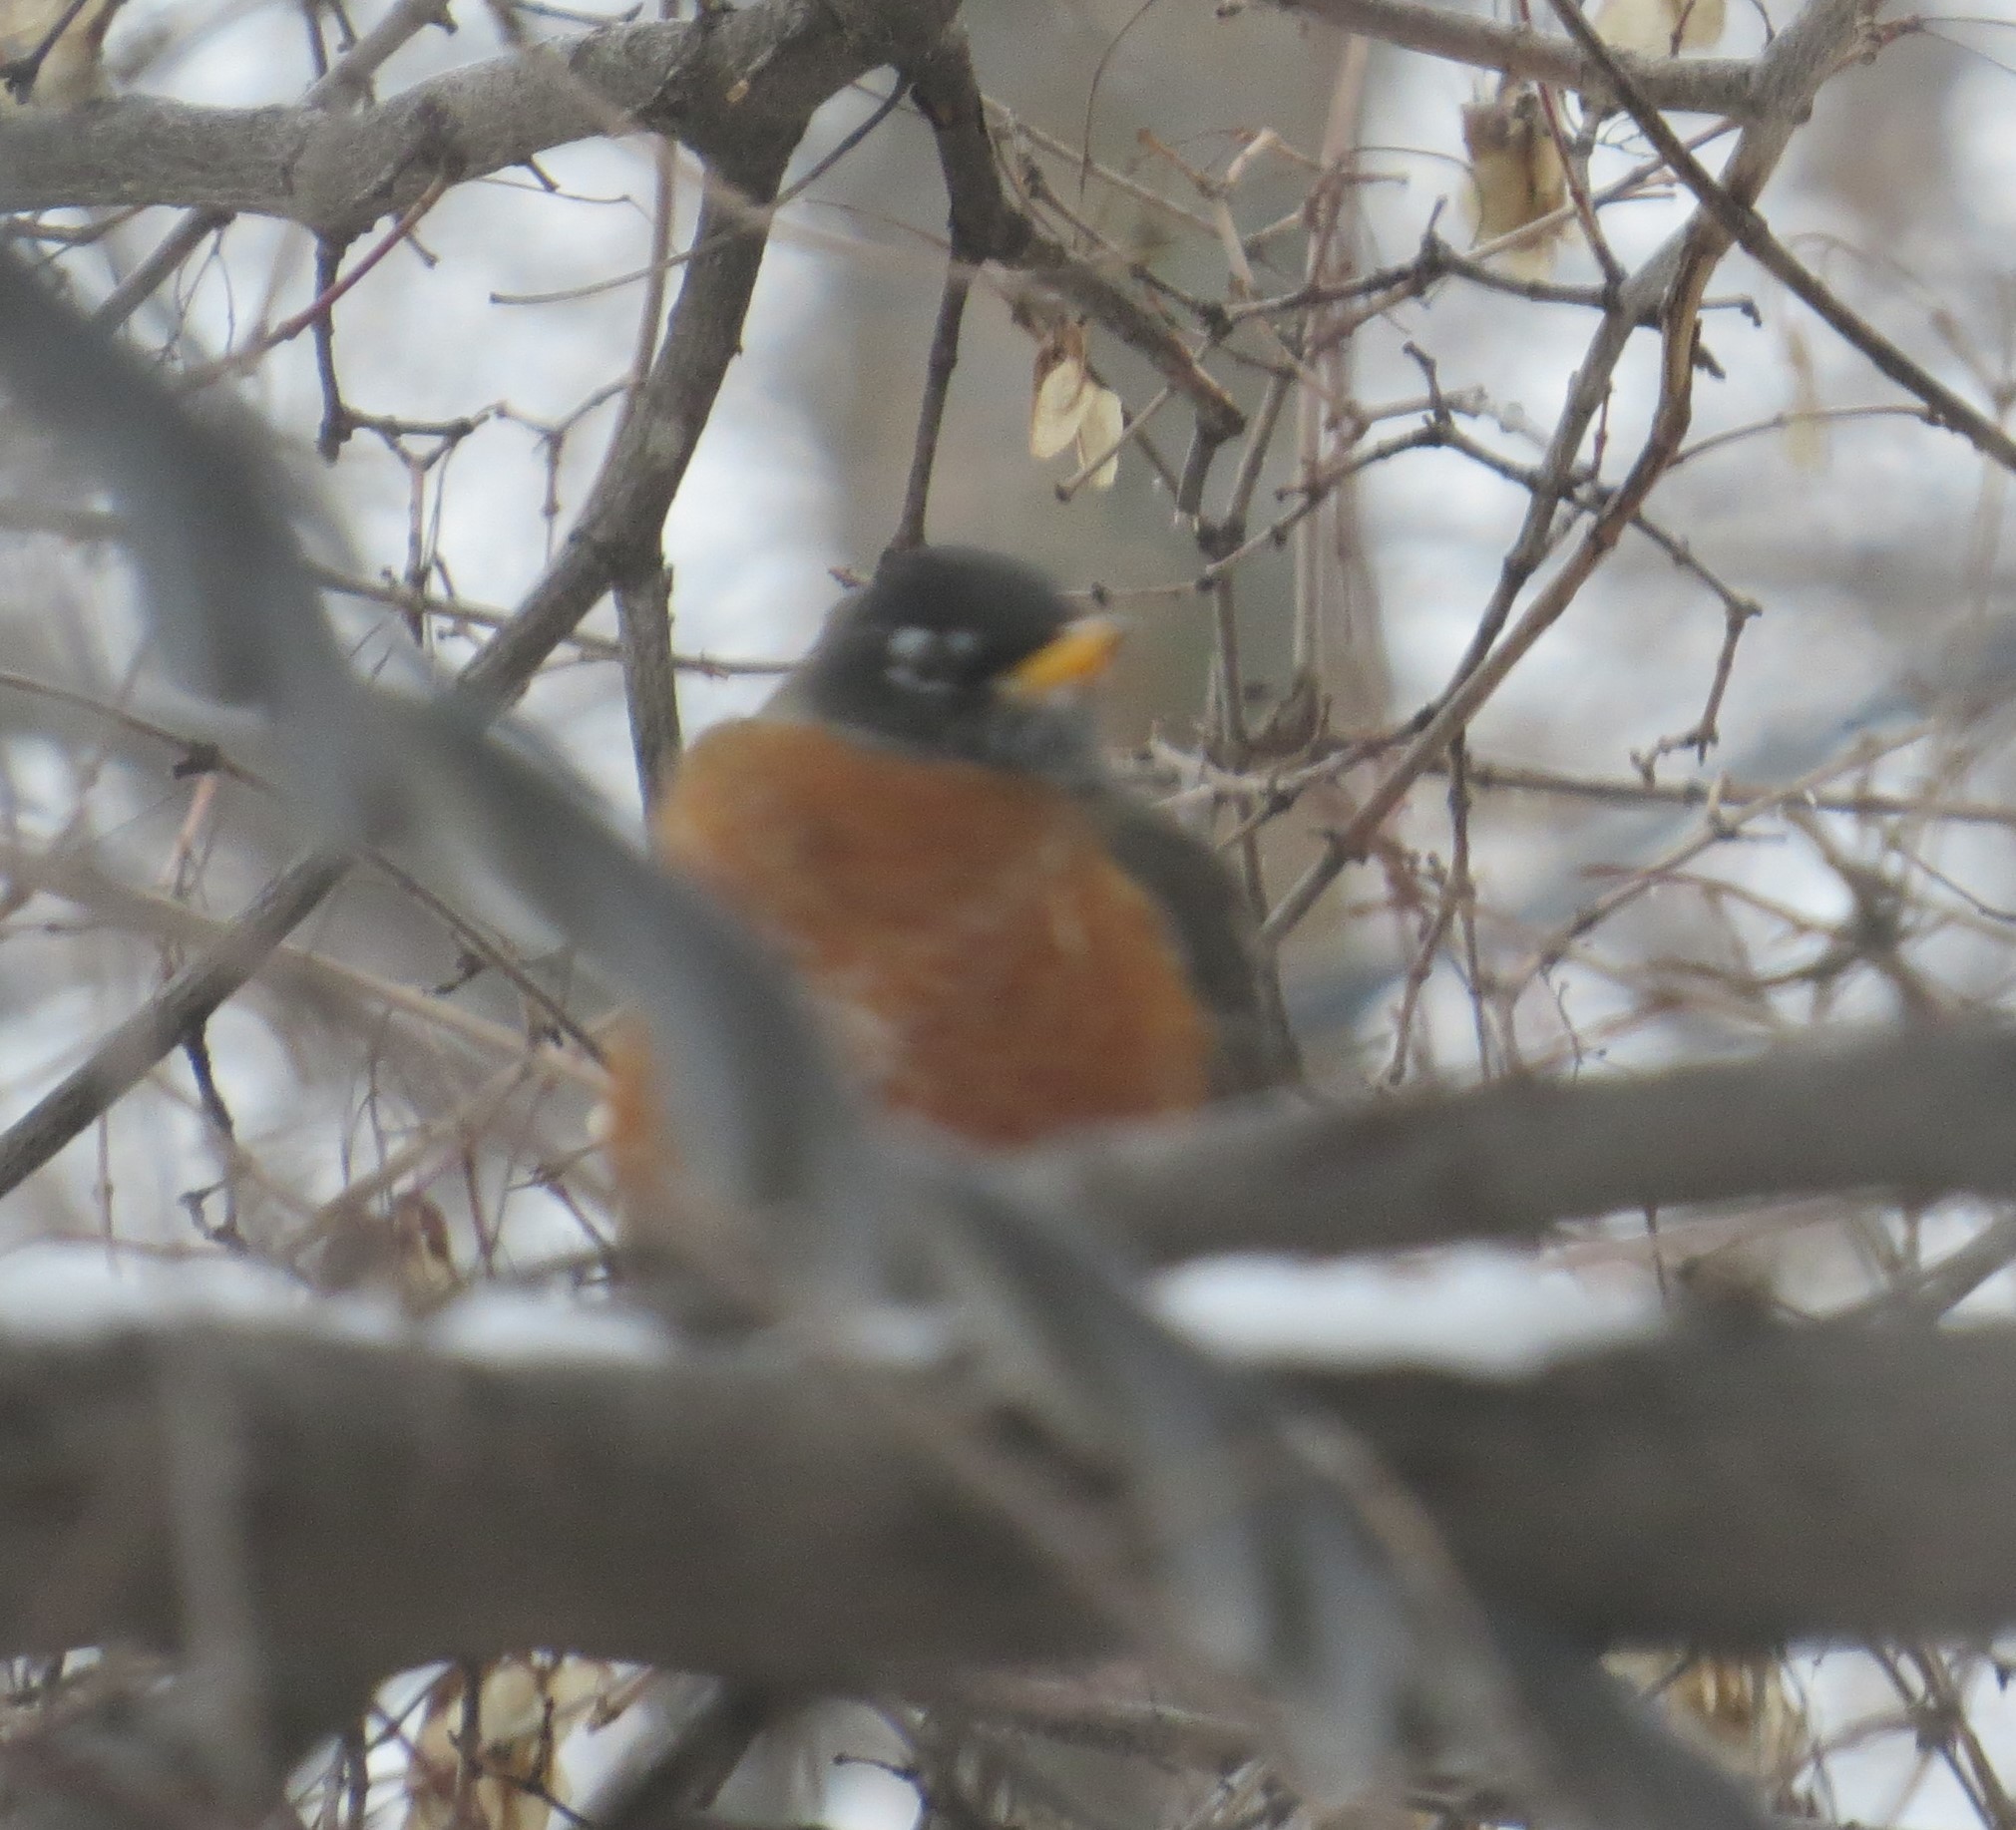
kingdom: Animalia
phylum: Chordata
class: Aves
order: Passeriformes
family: Turdidae
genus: Turdus
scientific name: Turdus migratorius
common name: American robin
